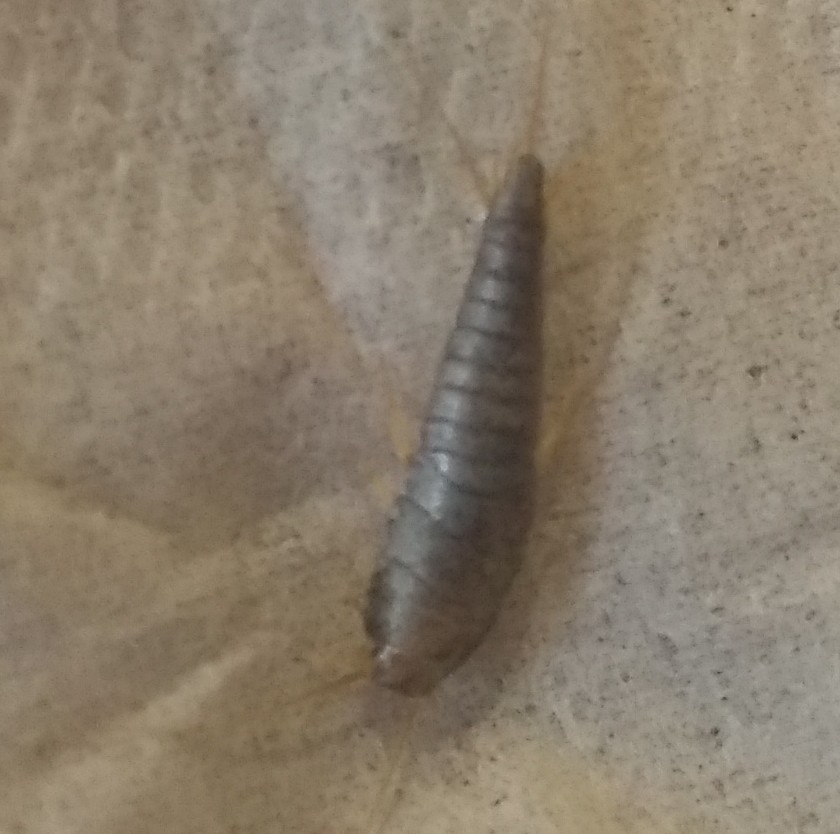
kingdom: Animalia
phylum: Arthropoda
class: Insecta
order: Zygentoma
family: Lepismatidae
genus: Lepisma
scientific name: Lepisma saccharinum
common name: Silverfish
